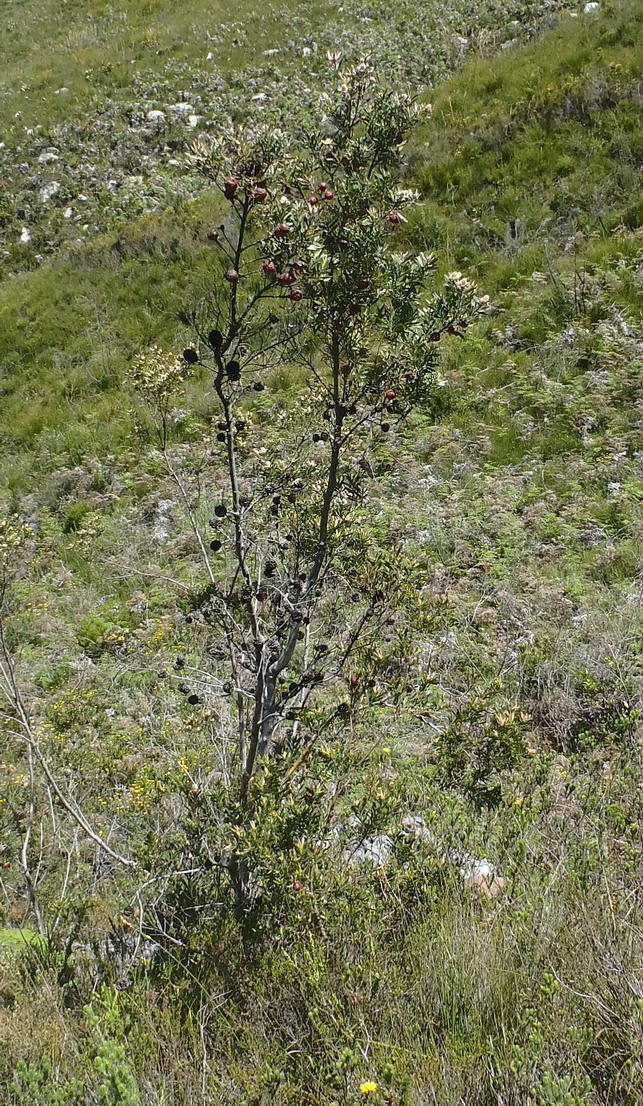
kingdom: Plantae
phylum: Tracheophyta
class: Magnoliopsida
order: Proteales
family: Proteaceae
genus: Leucadendron
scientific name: Leucadendron conicum
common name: Garden route conebush
